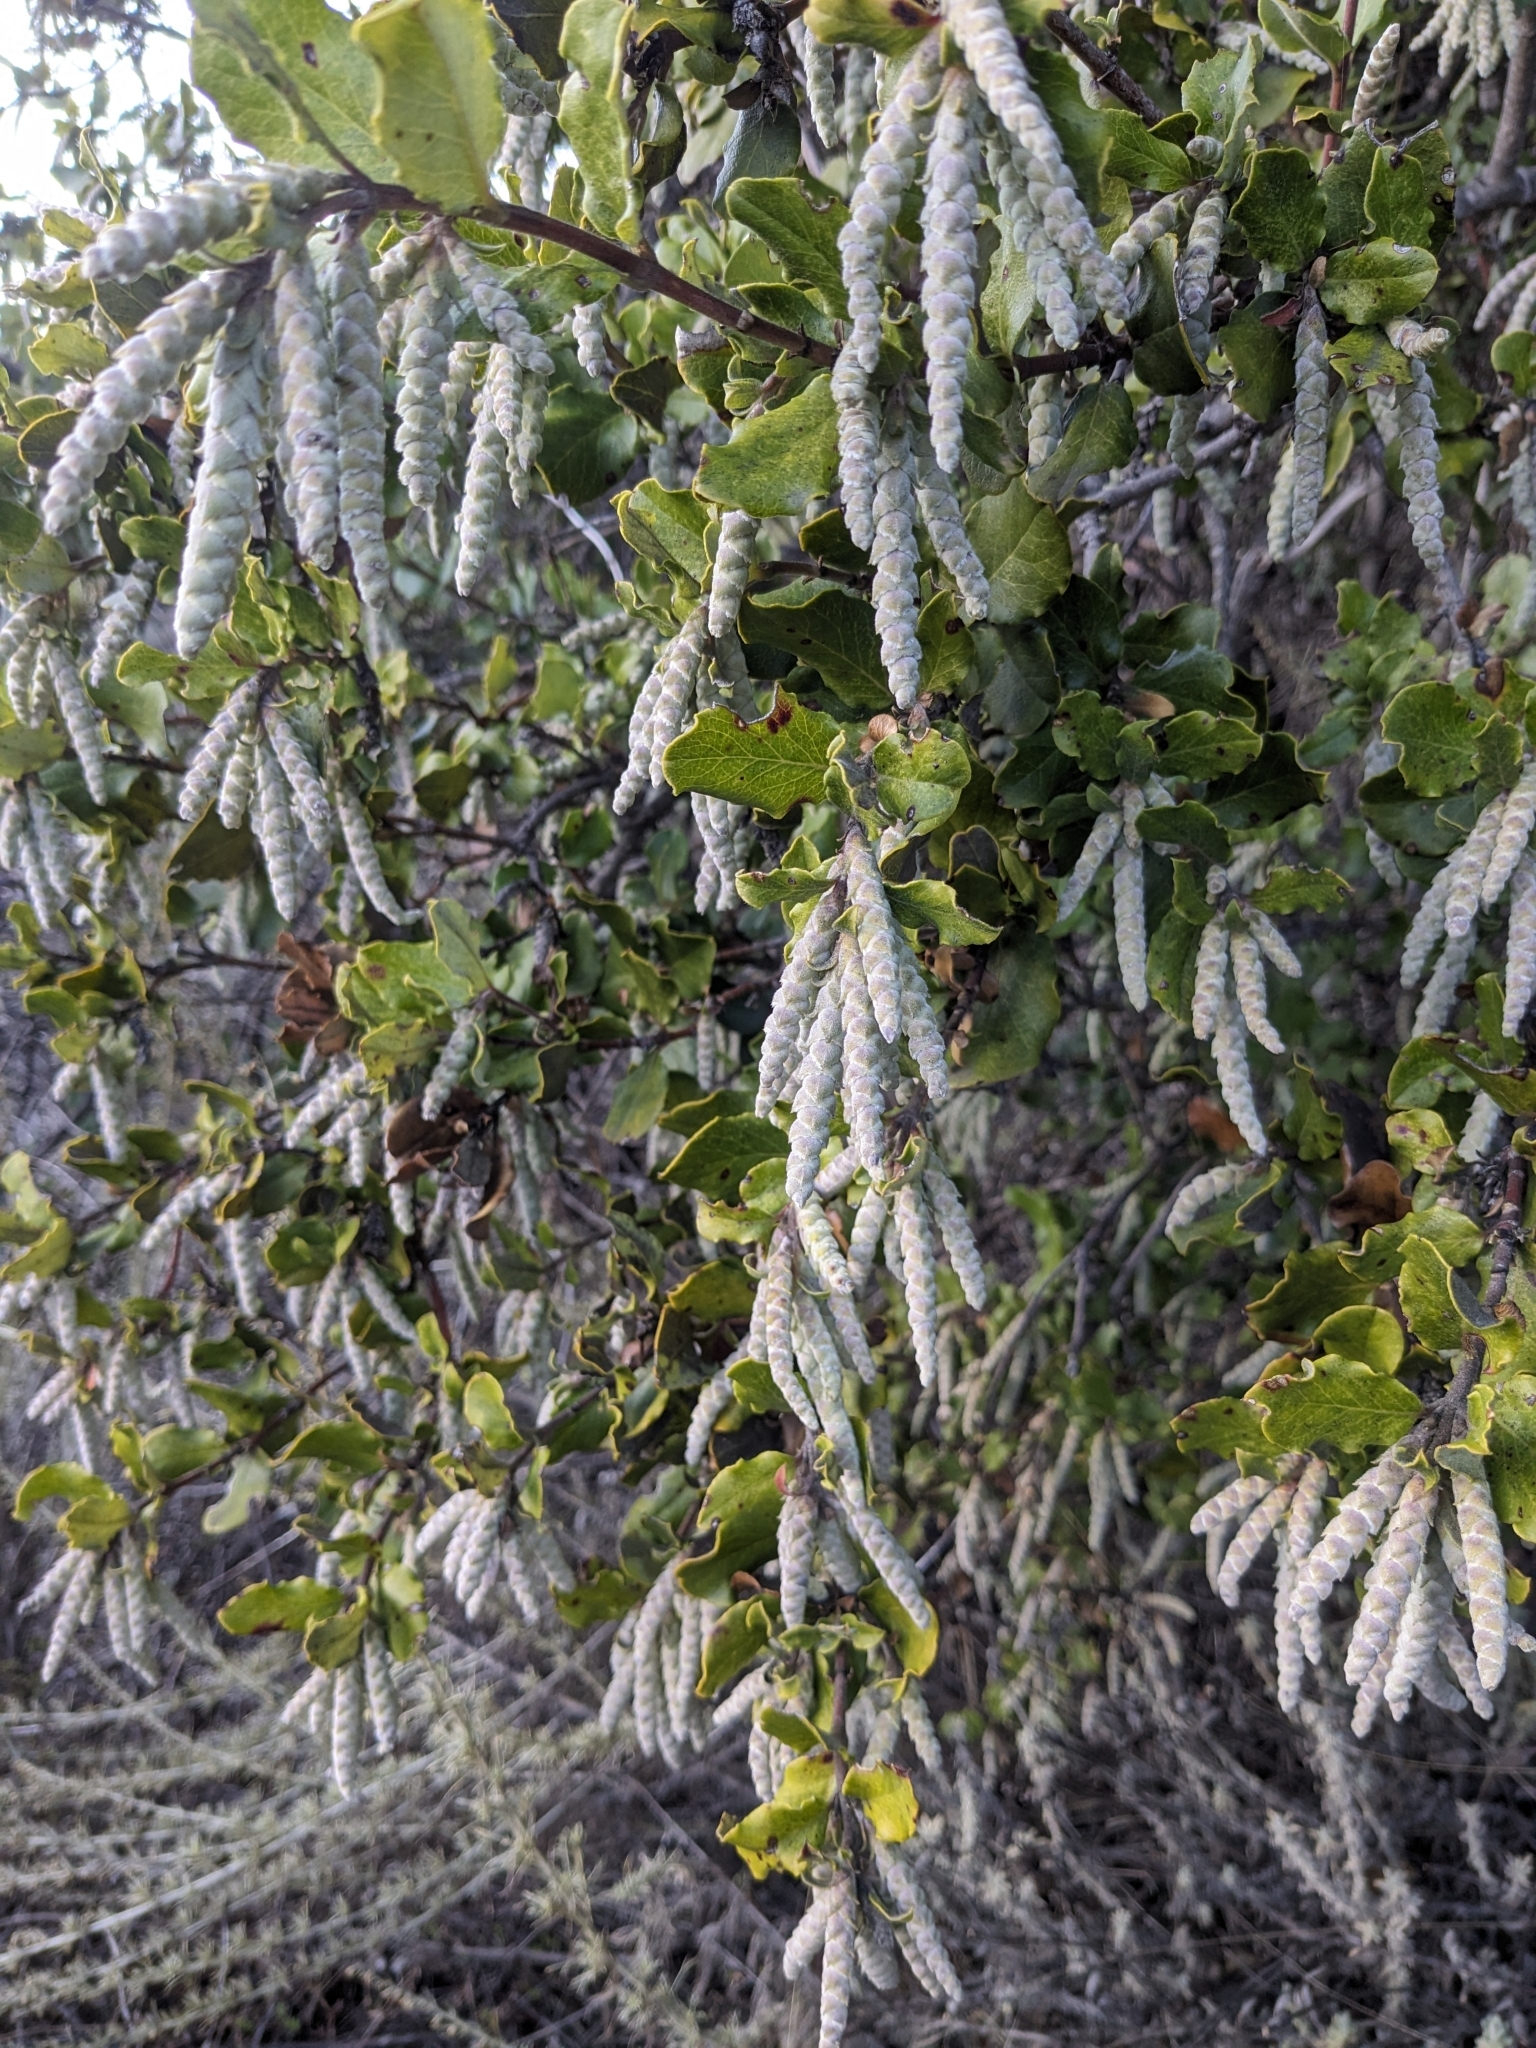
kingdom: Plantae
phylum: Tracheophyta
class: Magnoliopsida
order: Garryales
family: Garryaceae
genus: Garrya
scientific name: Garrya elliptica
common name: Silk-tassel
